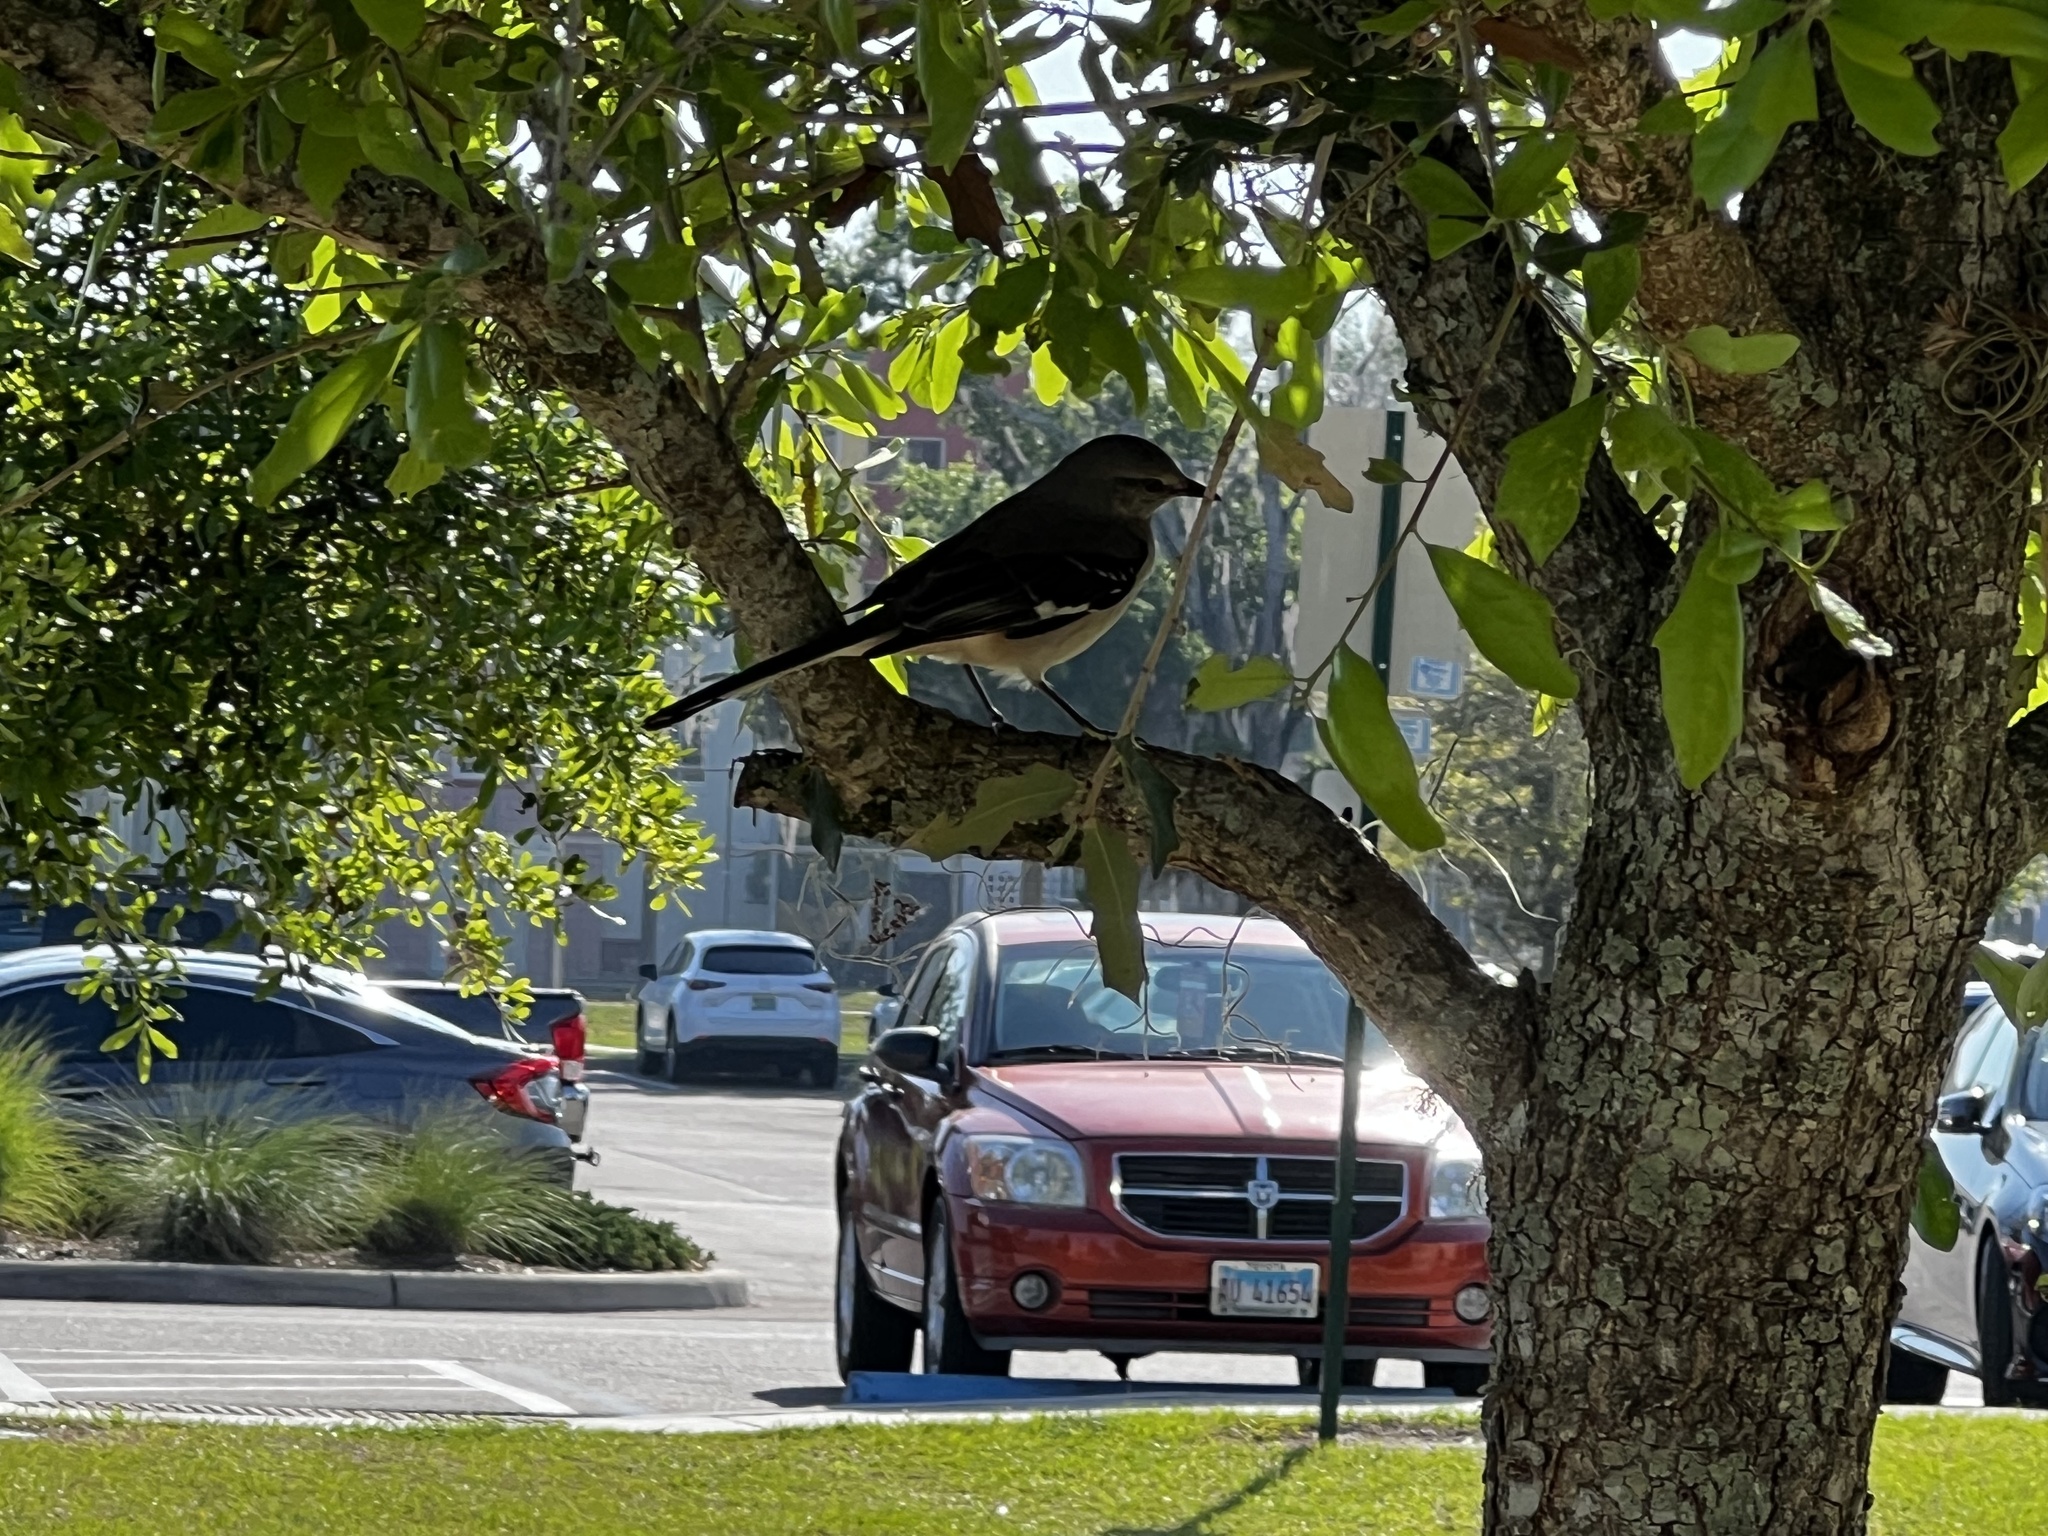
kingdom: Animalia
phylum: Chordata
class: Aves
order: Passeriformes
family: Mimidae
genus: Mimus
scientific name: Mimus polyglottos
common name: Northern mockingbird
